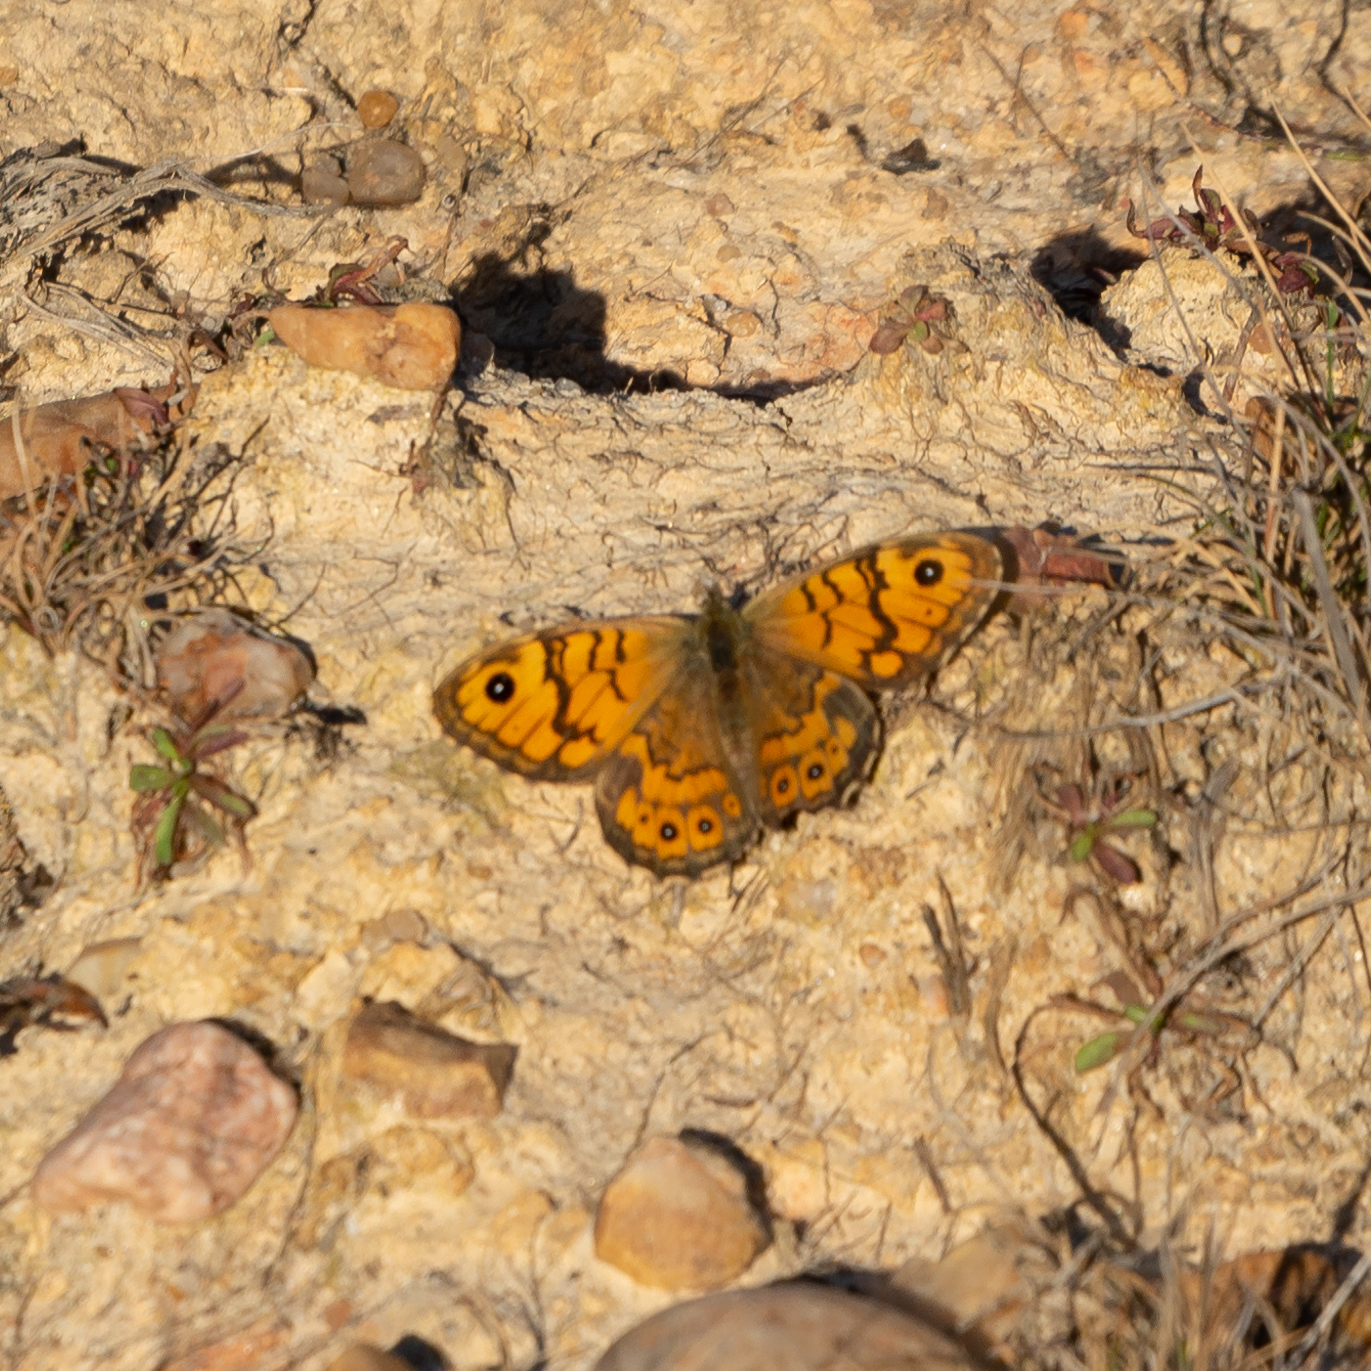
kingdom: Animalia
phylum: Arthropoda
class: Insecta
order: Lepidoptera
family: Nymphalidae
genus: Pararge
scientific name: Pararge Lasiommata megera
